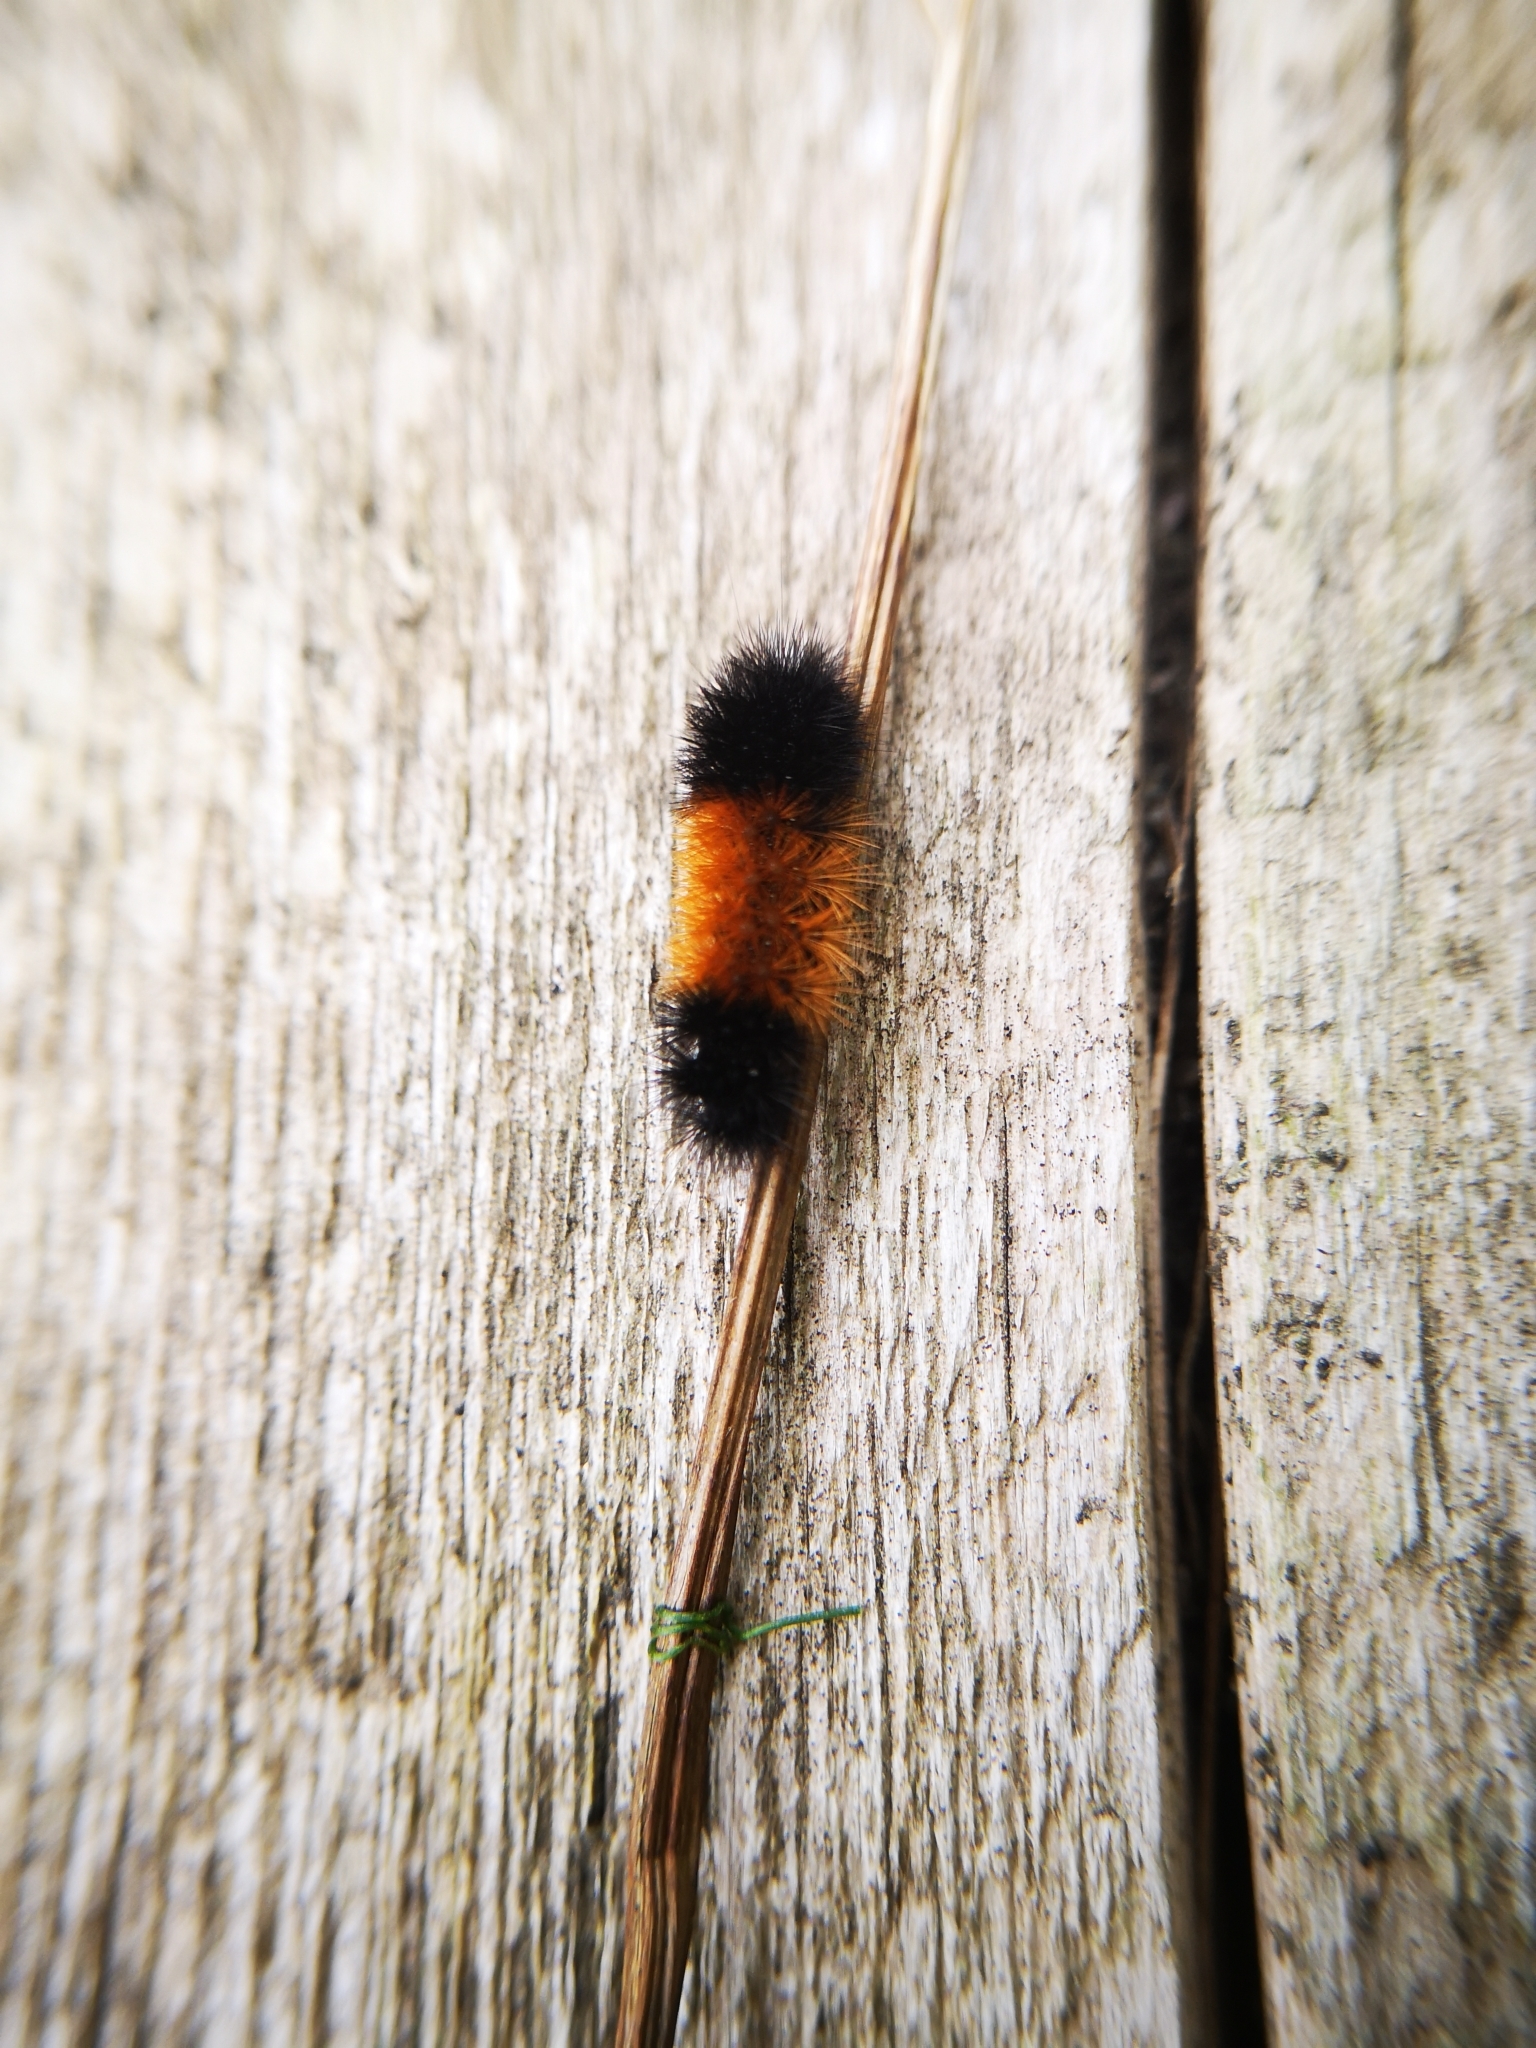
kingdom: Animalia
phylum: Arthropoda
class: Insecta
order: Lepidoptera
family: Erebidae
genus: Pyrrharctia
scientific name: Pyrrharctia isabella
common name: Isabella tiger moth
